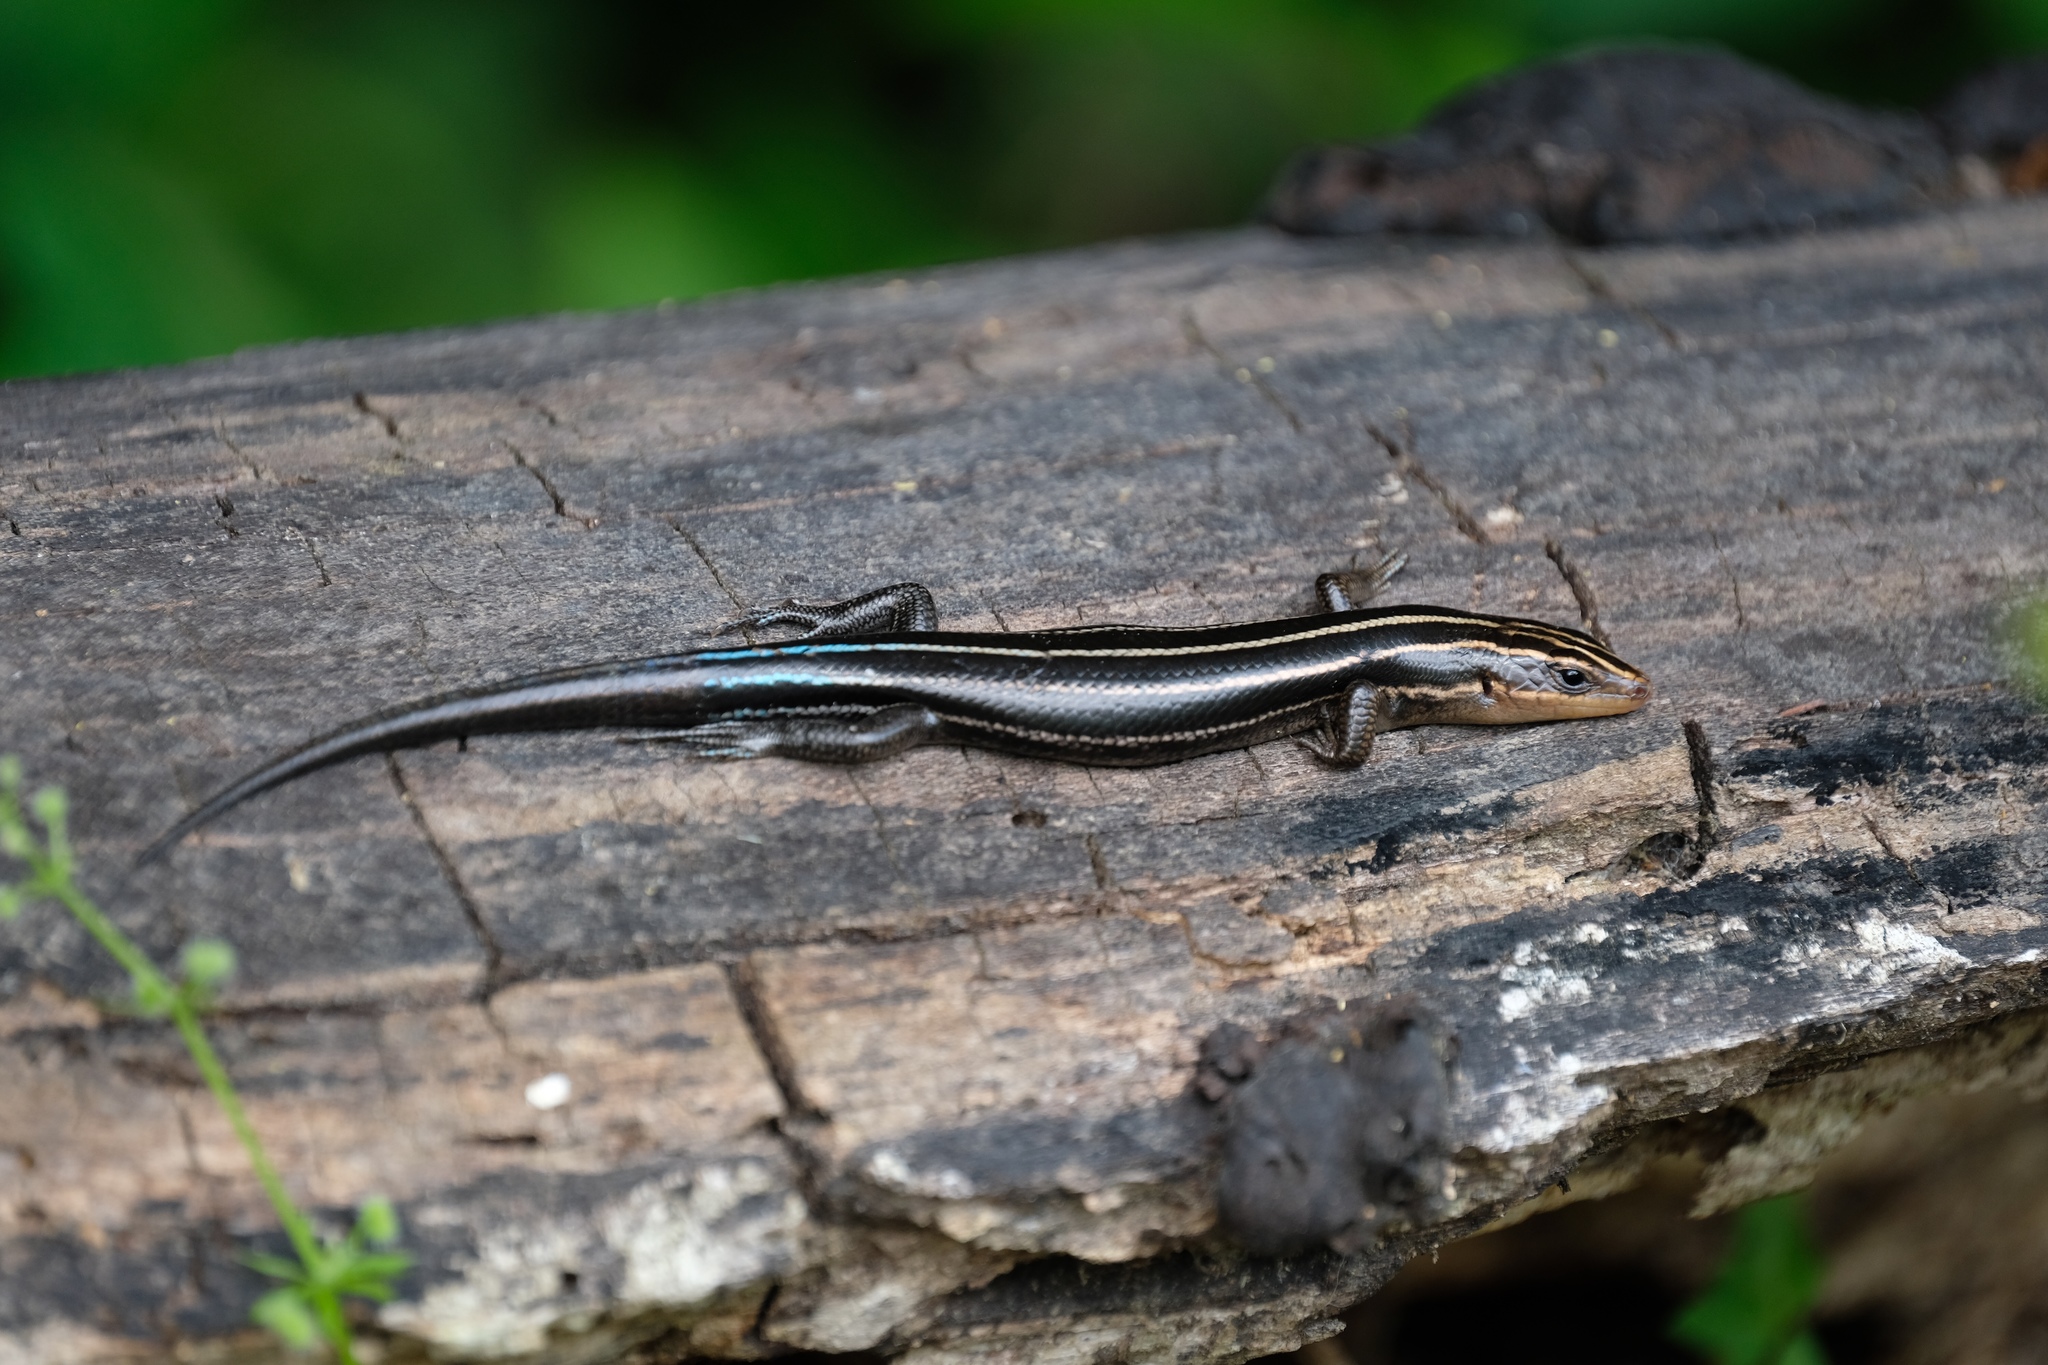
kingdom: Animalia
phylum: Chordata
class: Squamata
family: Scincidae
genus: Plestiodon
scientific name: Plestiodon fasciatus
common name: Five-lined skink
